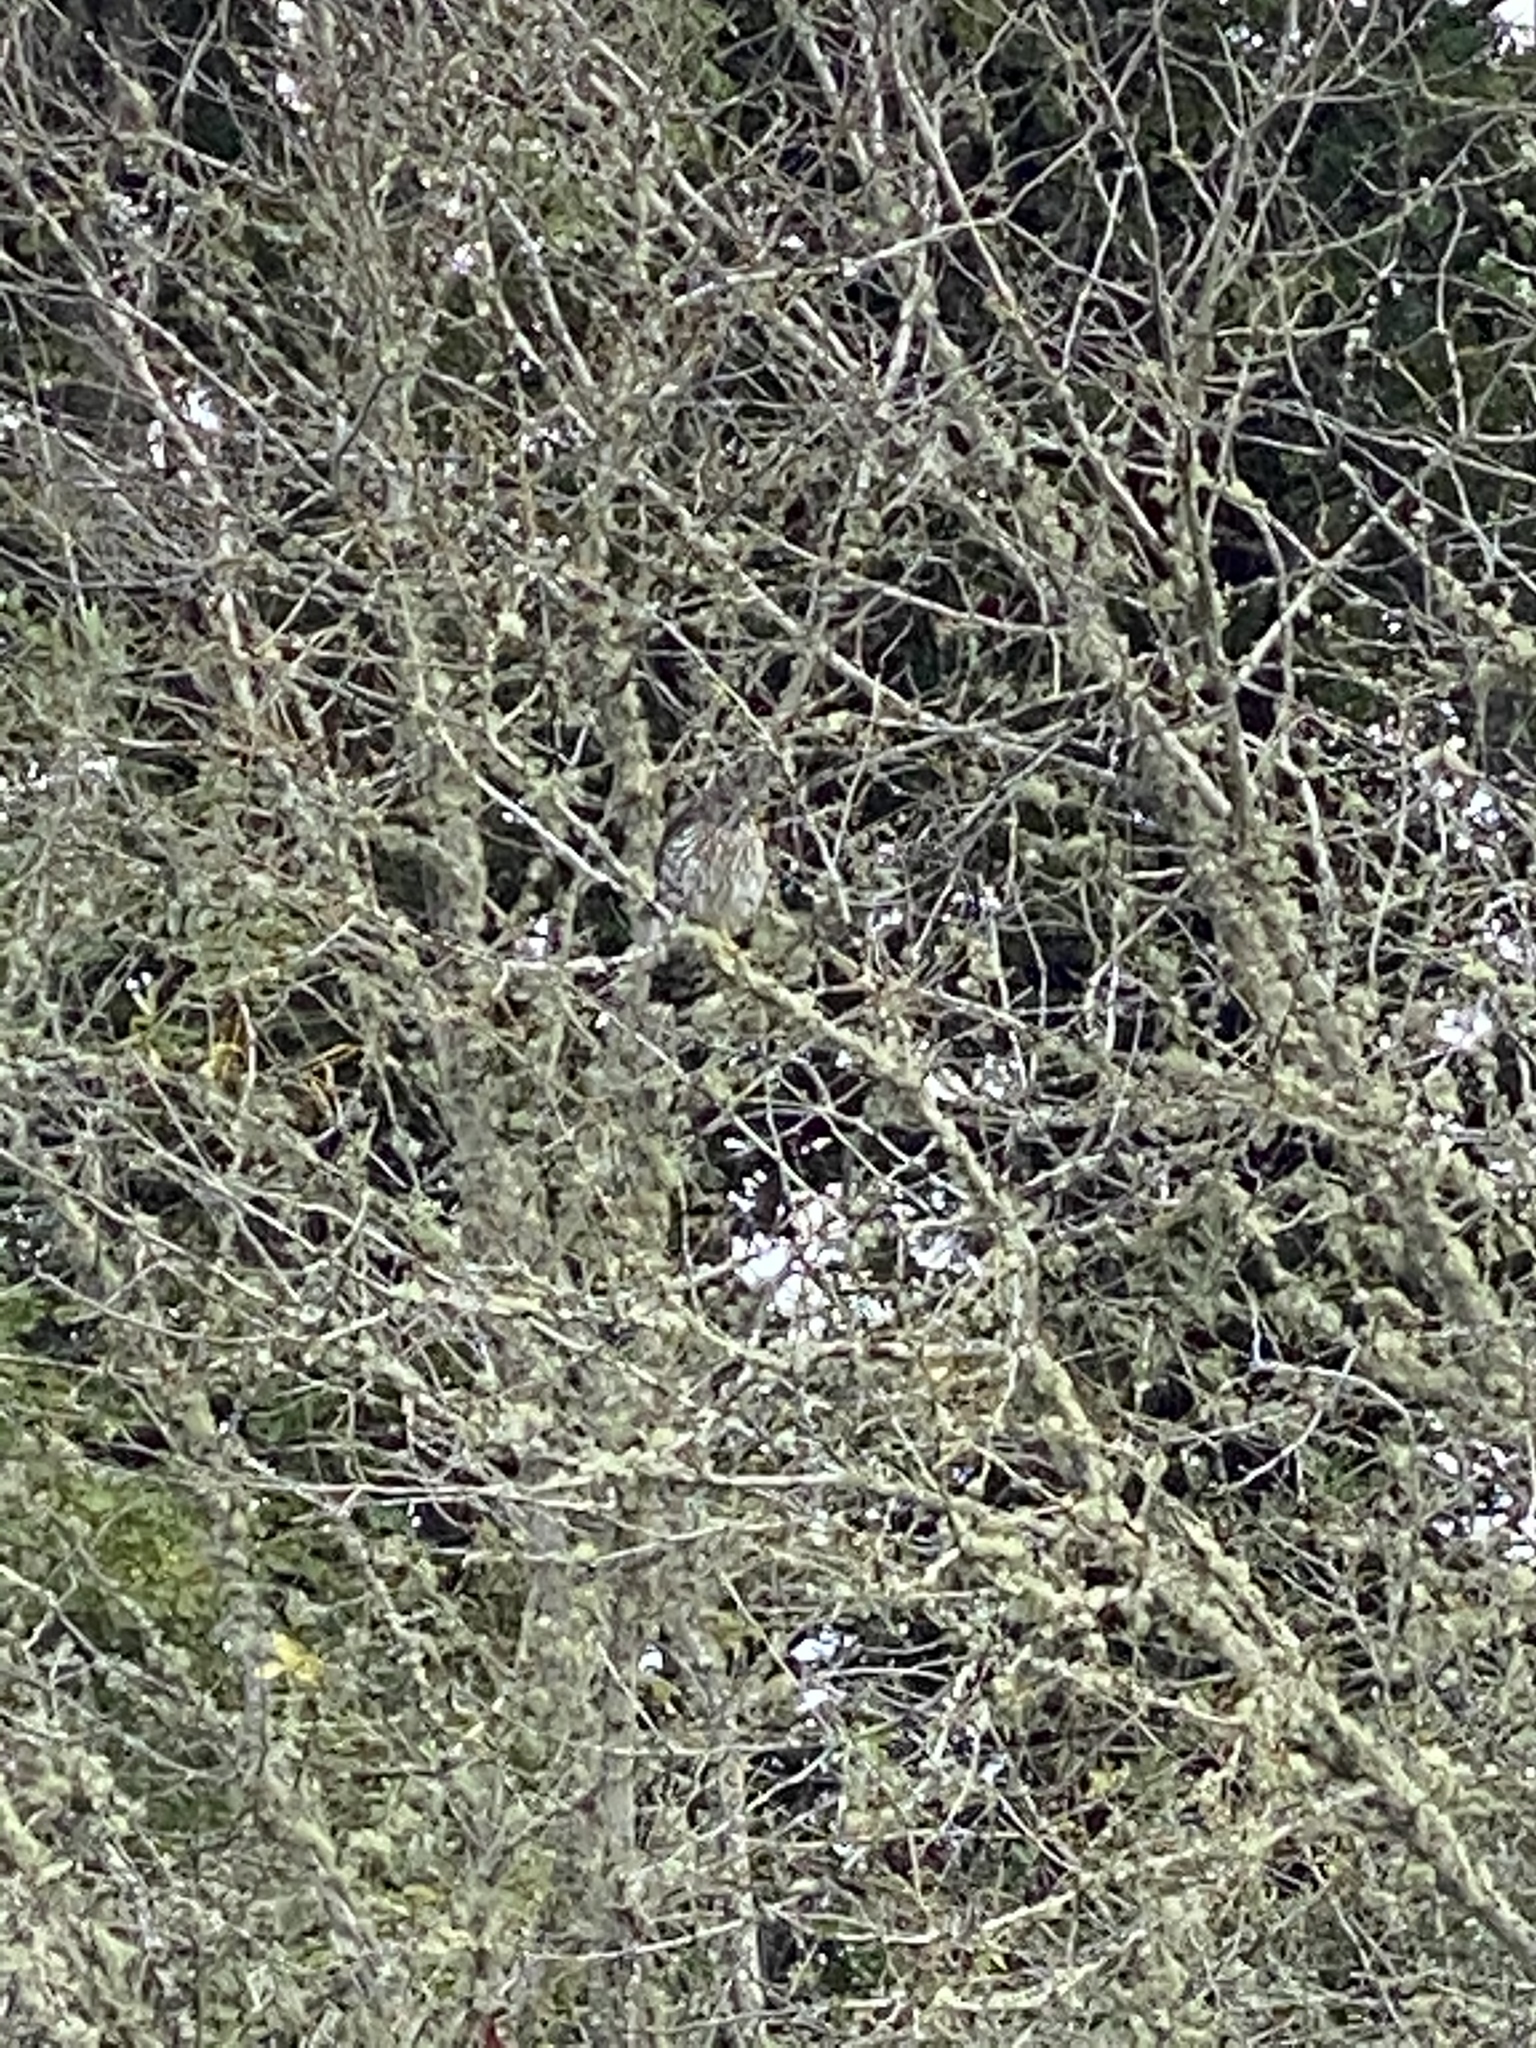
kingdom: Animalia
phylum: Chordata
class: Aves
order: Accipitriformes
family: Accipitridae
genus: Accipiter
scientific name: Accipiter cooperii
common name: Cooper's hawk
